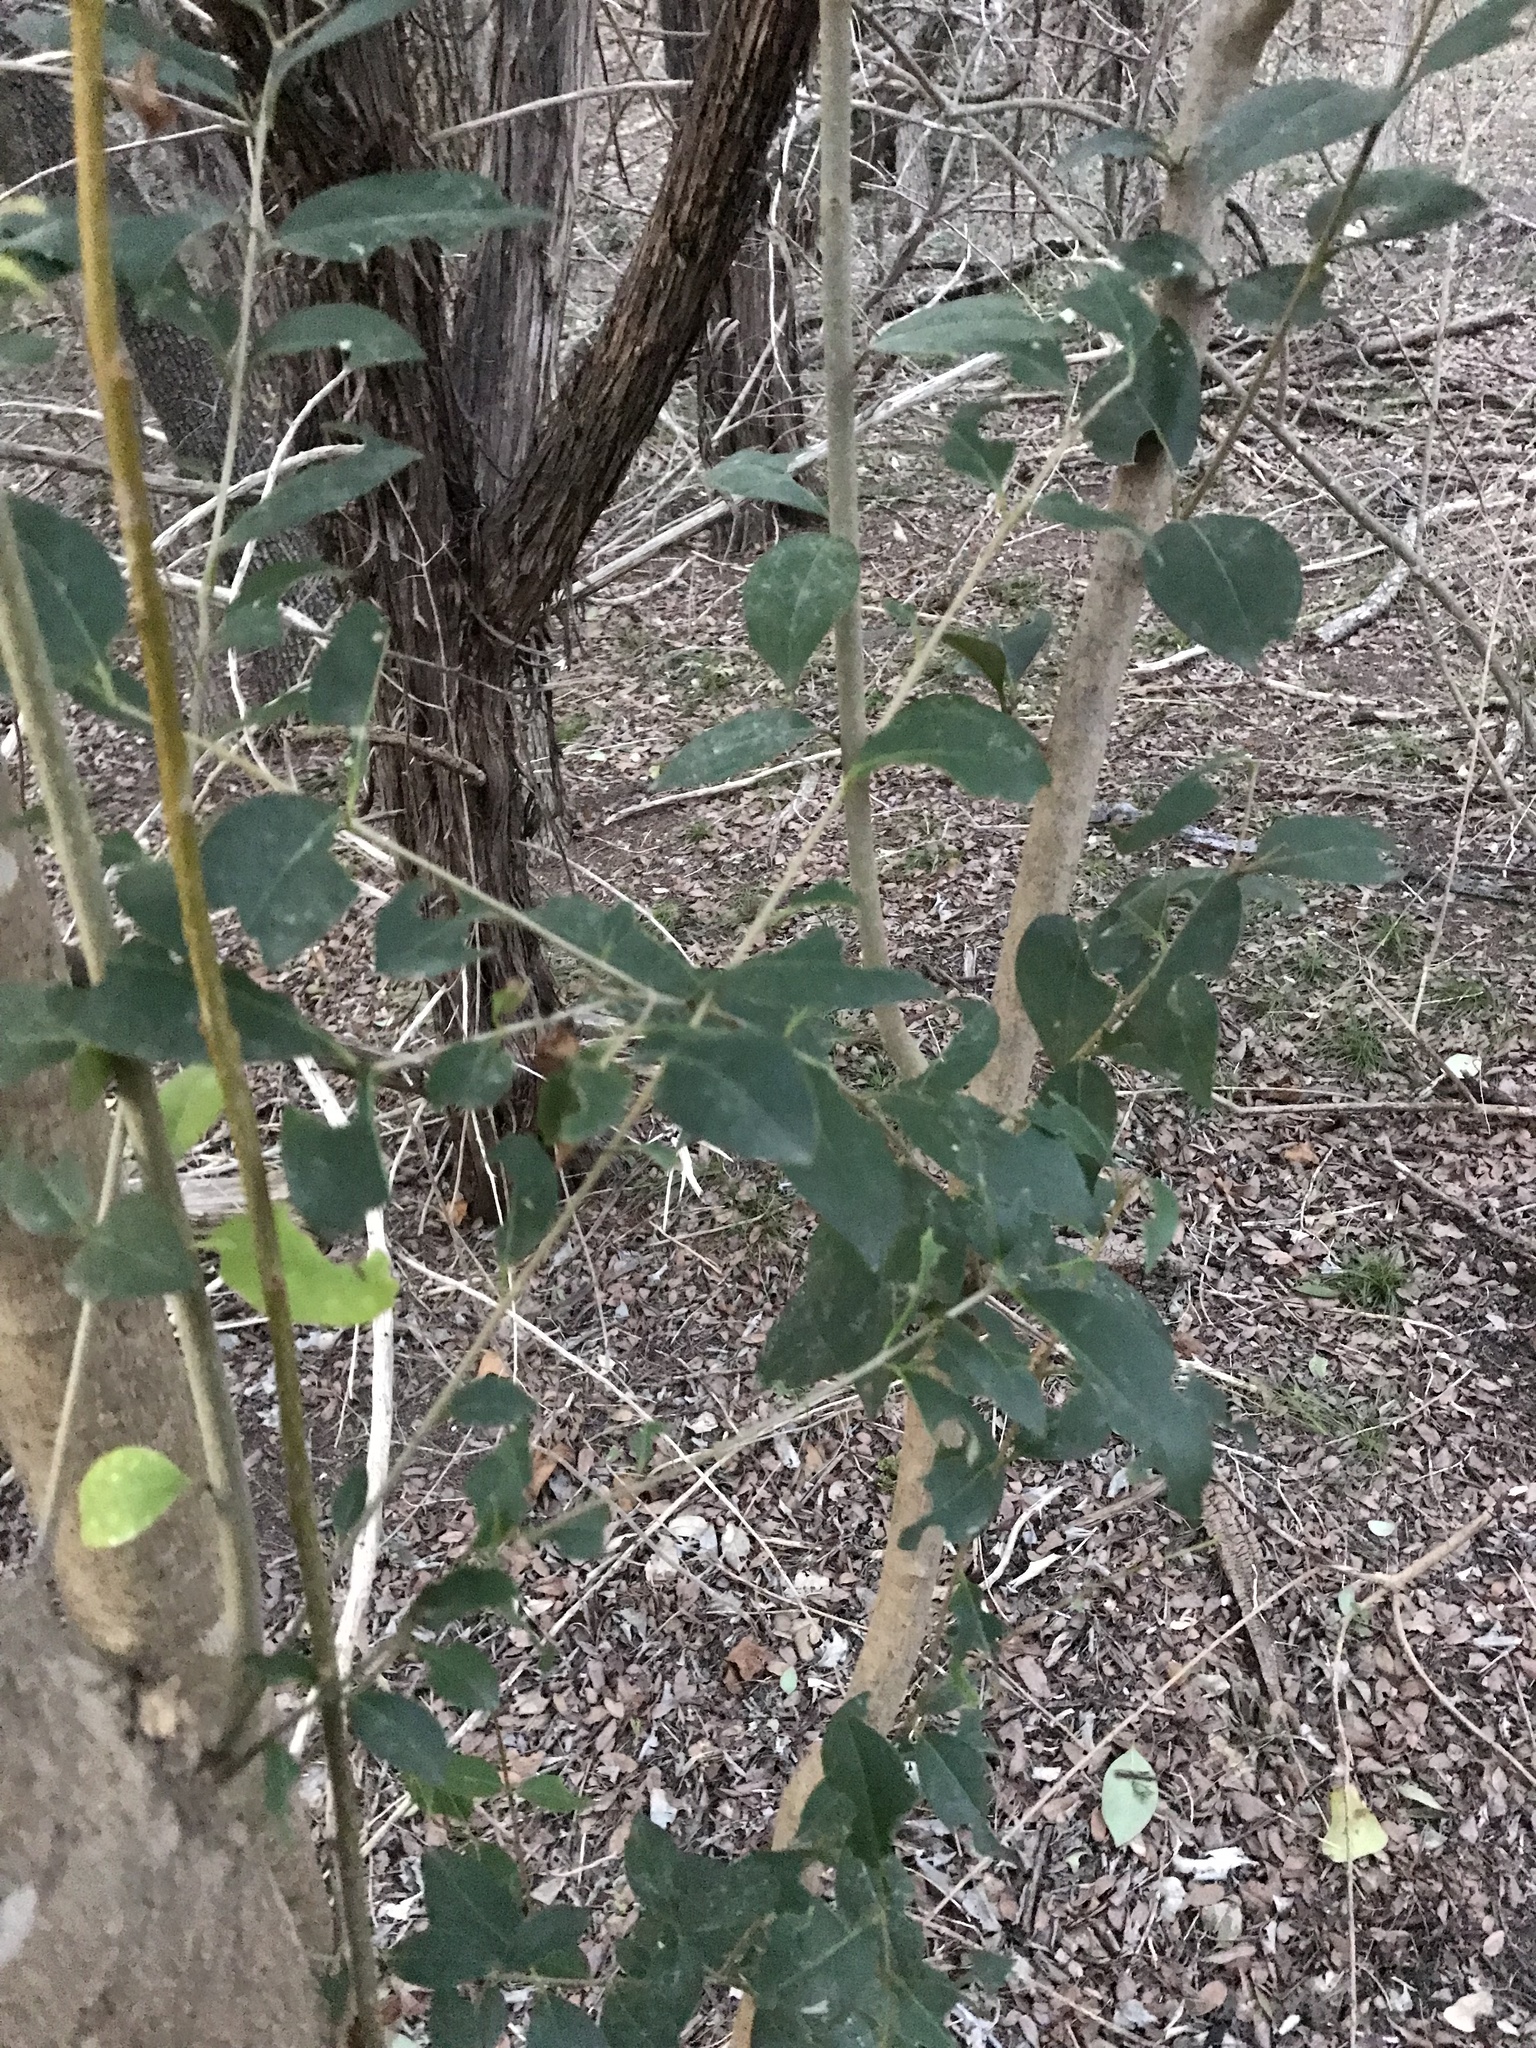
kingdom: Plantae
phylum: Tracheophyta
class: Magnoliopsida
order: Lamiales
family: Oleaceae
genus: Ligustrum
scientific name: Ligustrum lucidum
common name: Glossy privet
